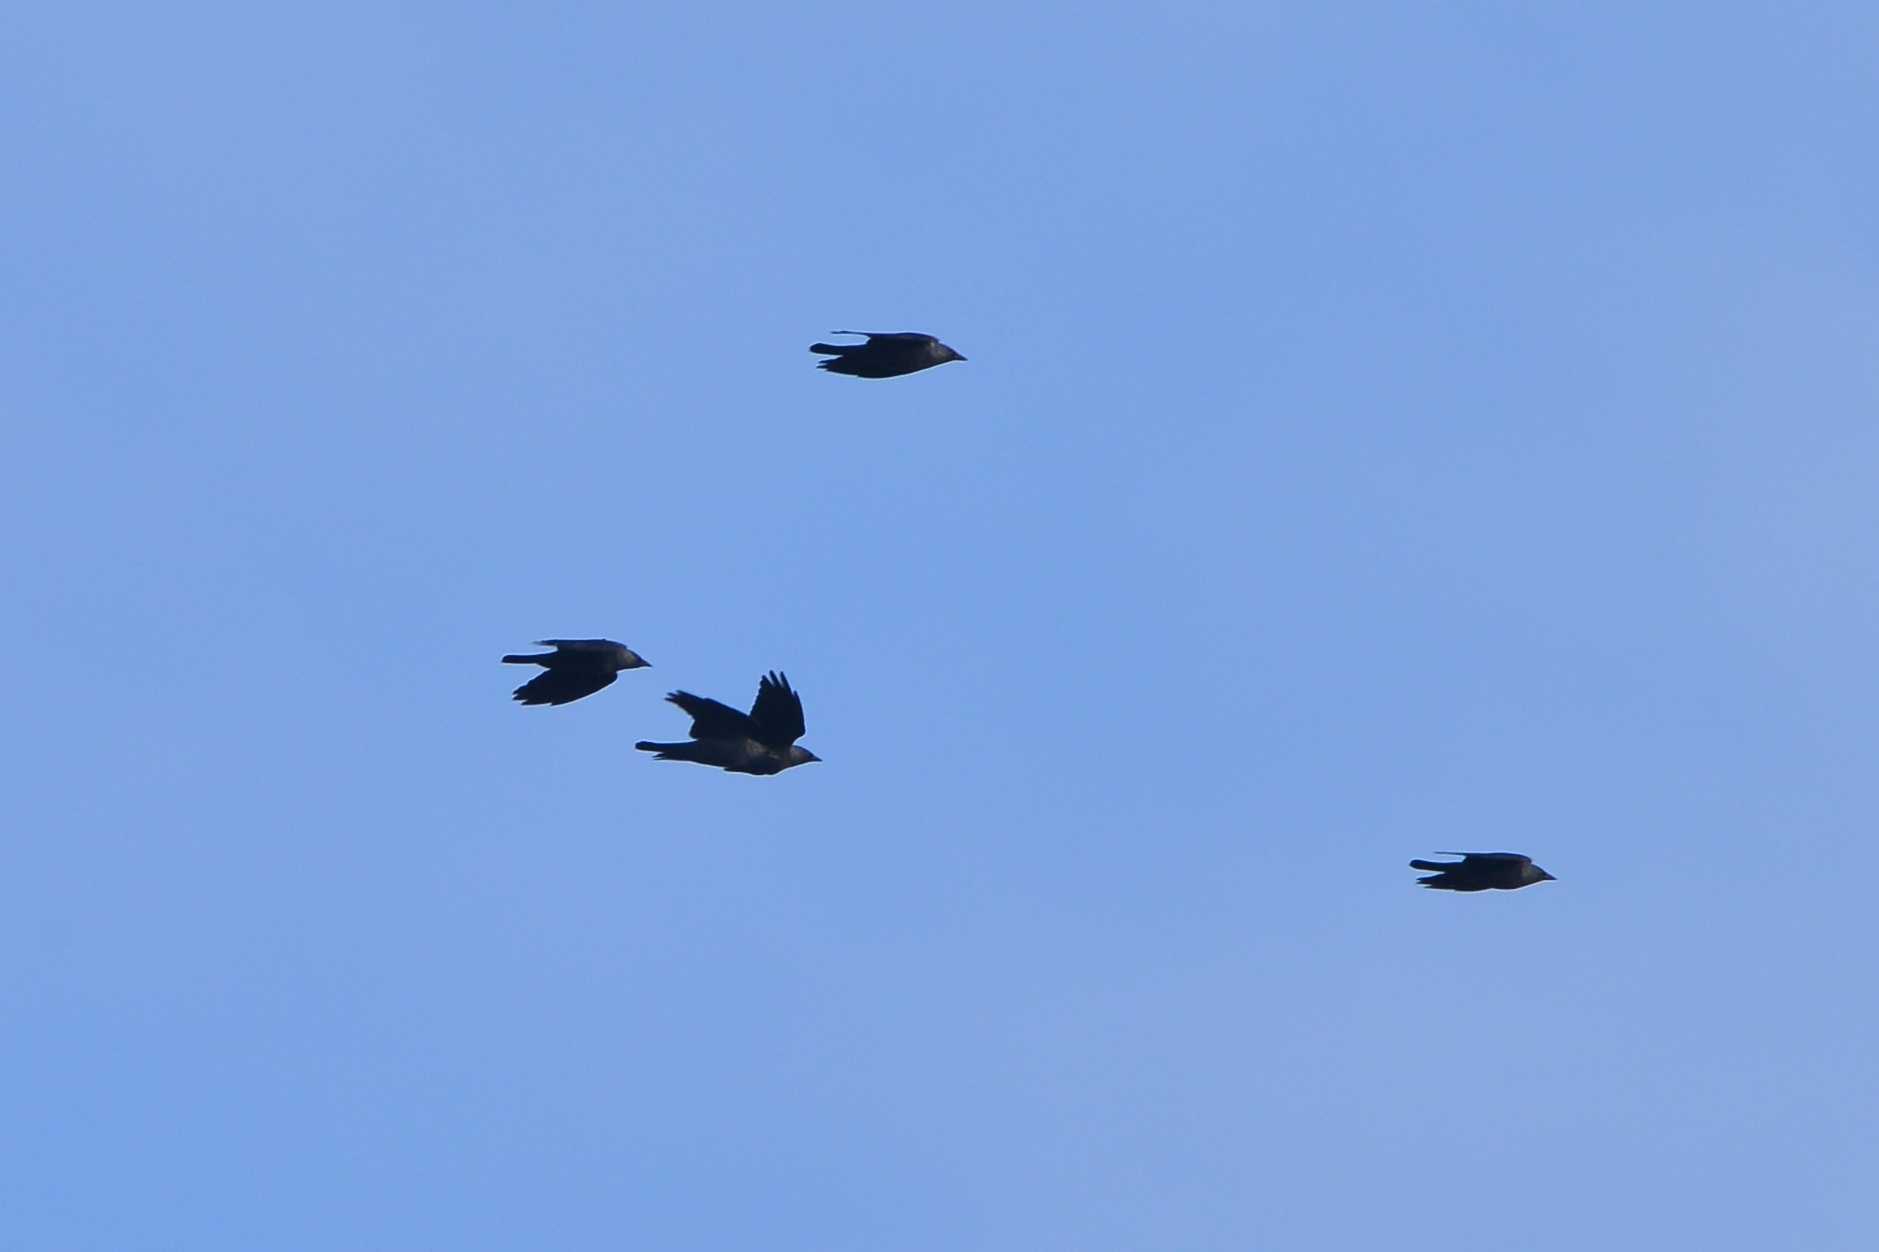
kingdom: Animalia
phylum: Chordata
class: Aves
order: Passeriformes
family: Corvidae
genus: Coloeus
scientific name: Coloeus monedula
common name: Western jackdaw
